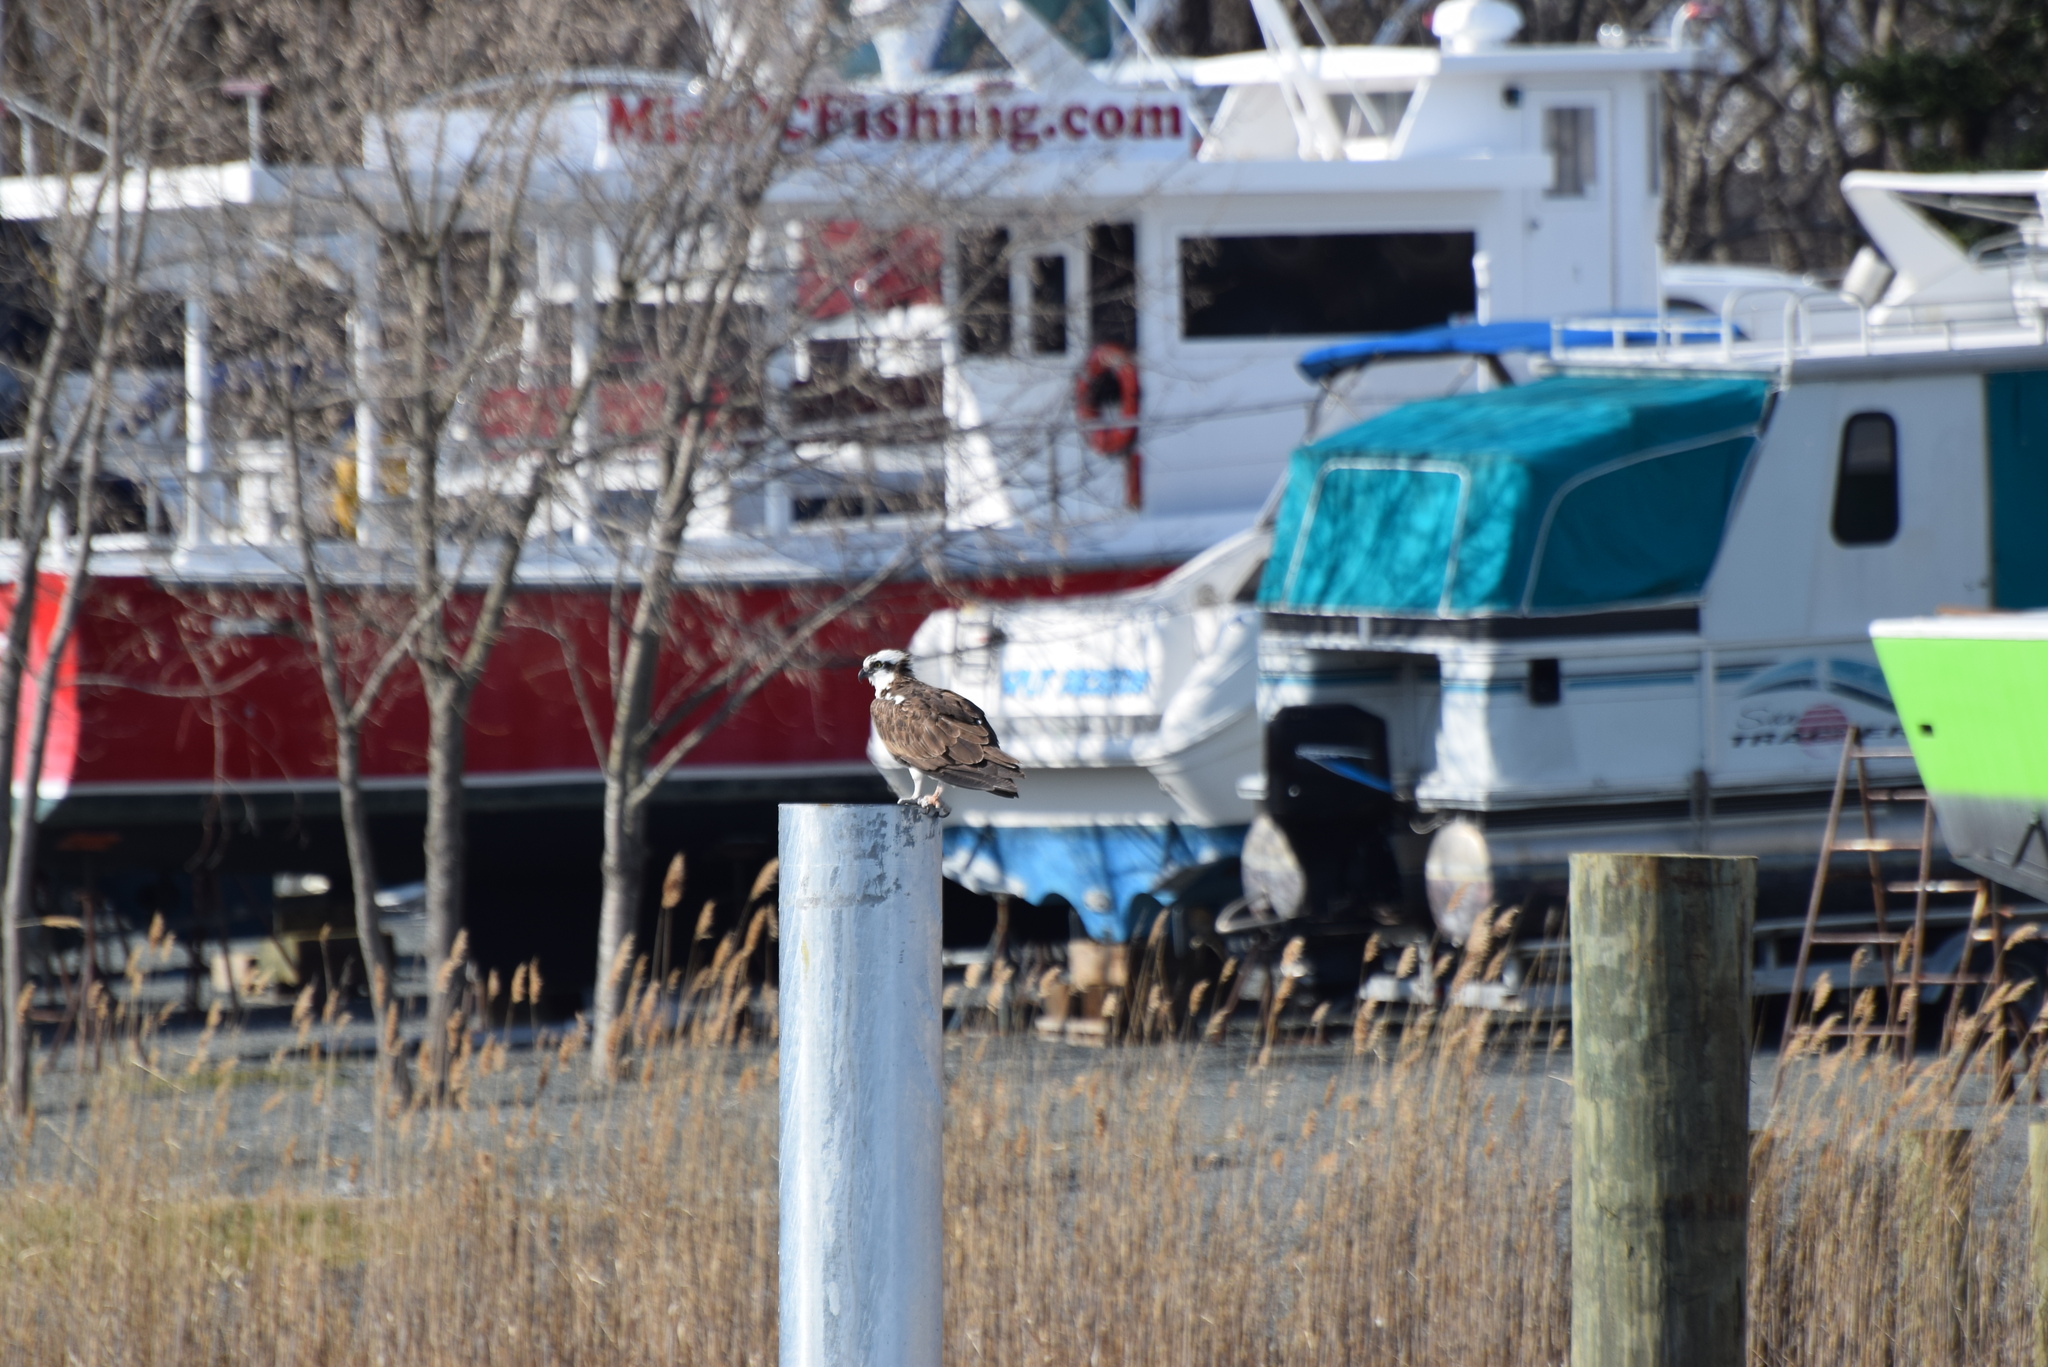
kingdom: Animalia
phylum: Chordata
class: Aves
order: Accipitriformes
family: Pandionidae
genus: Pandion
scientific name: Pandion haliaetus
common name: Osprey
